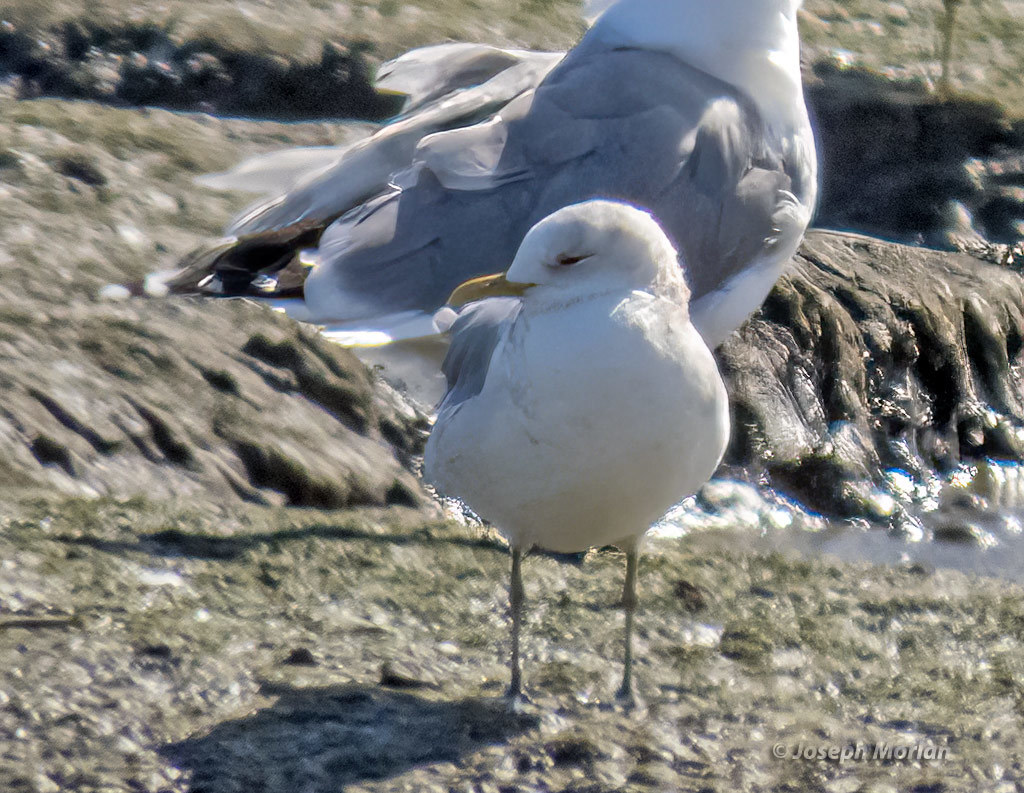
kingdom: Animalia
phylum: Chordata
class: Aves
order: Charadriiformes
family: Laridae
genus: Larus
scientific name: Larus brachyrhynchus
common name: Short-billed gull
